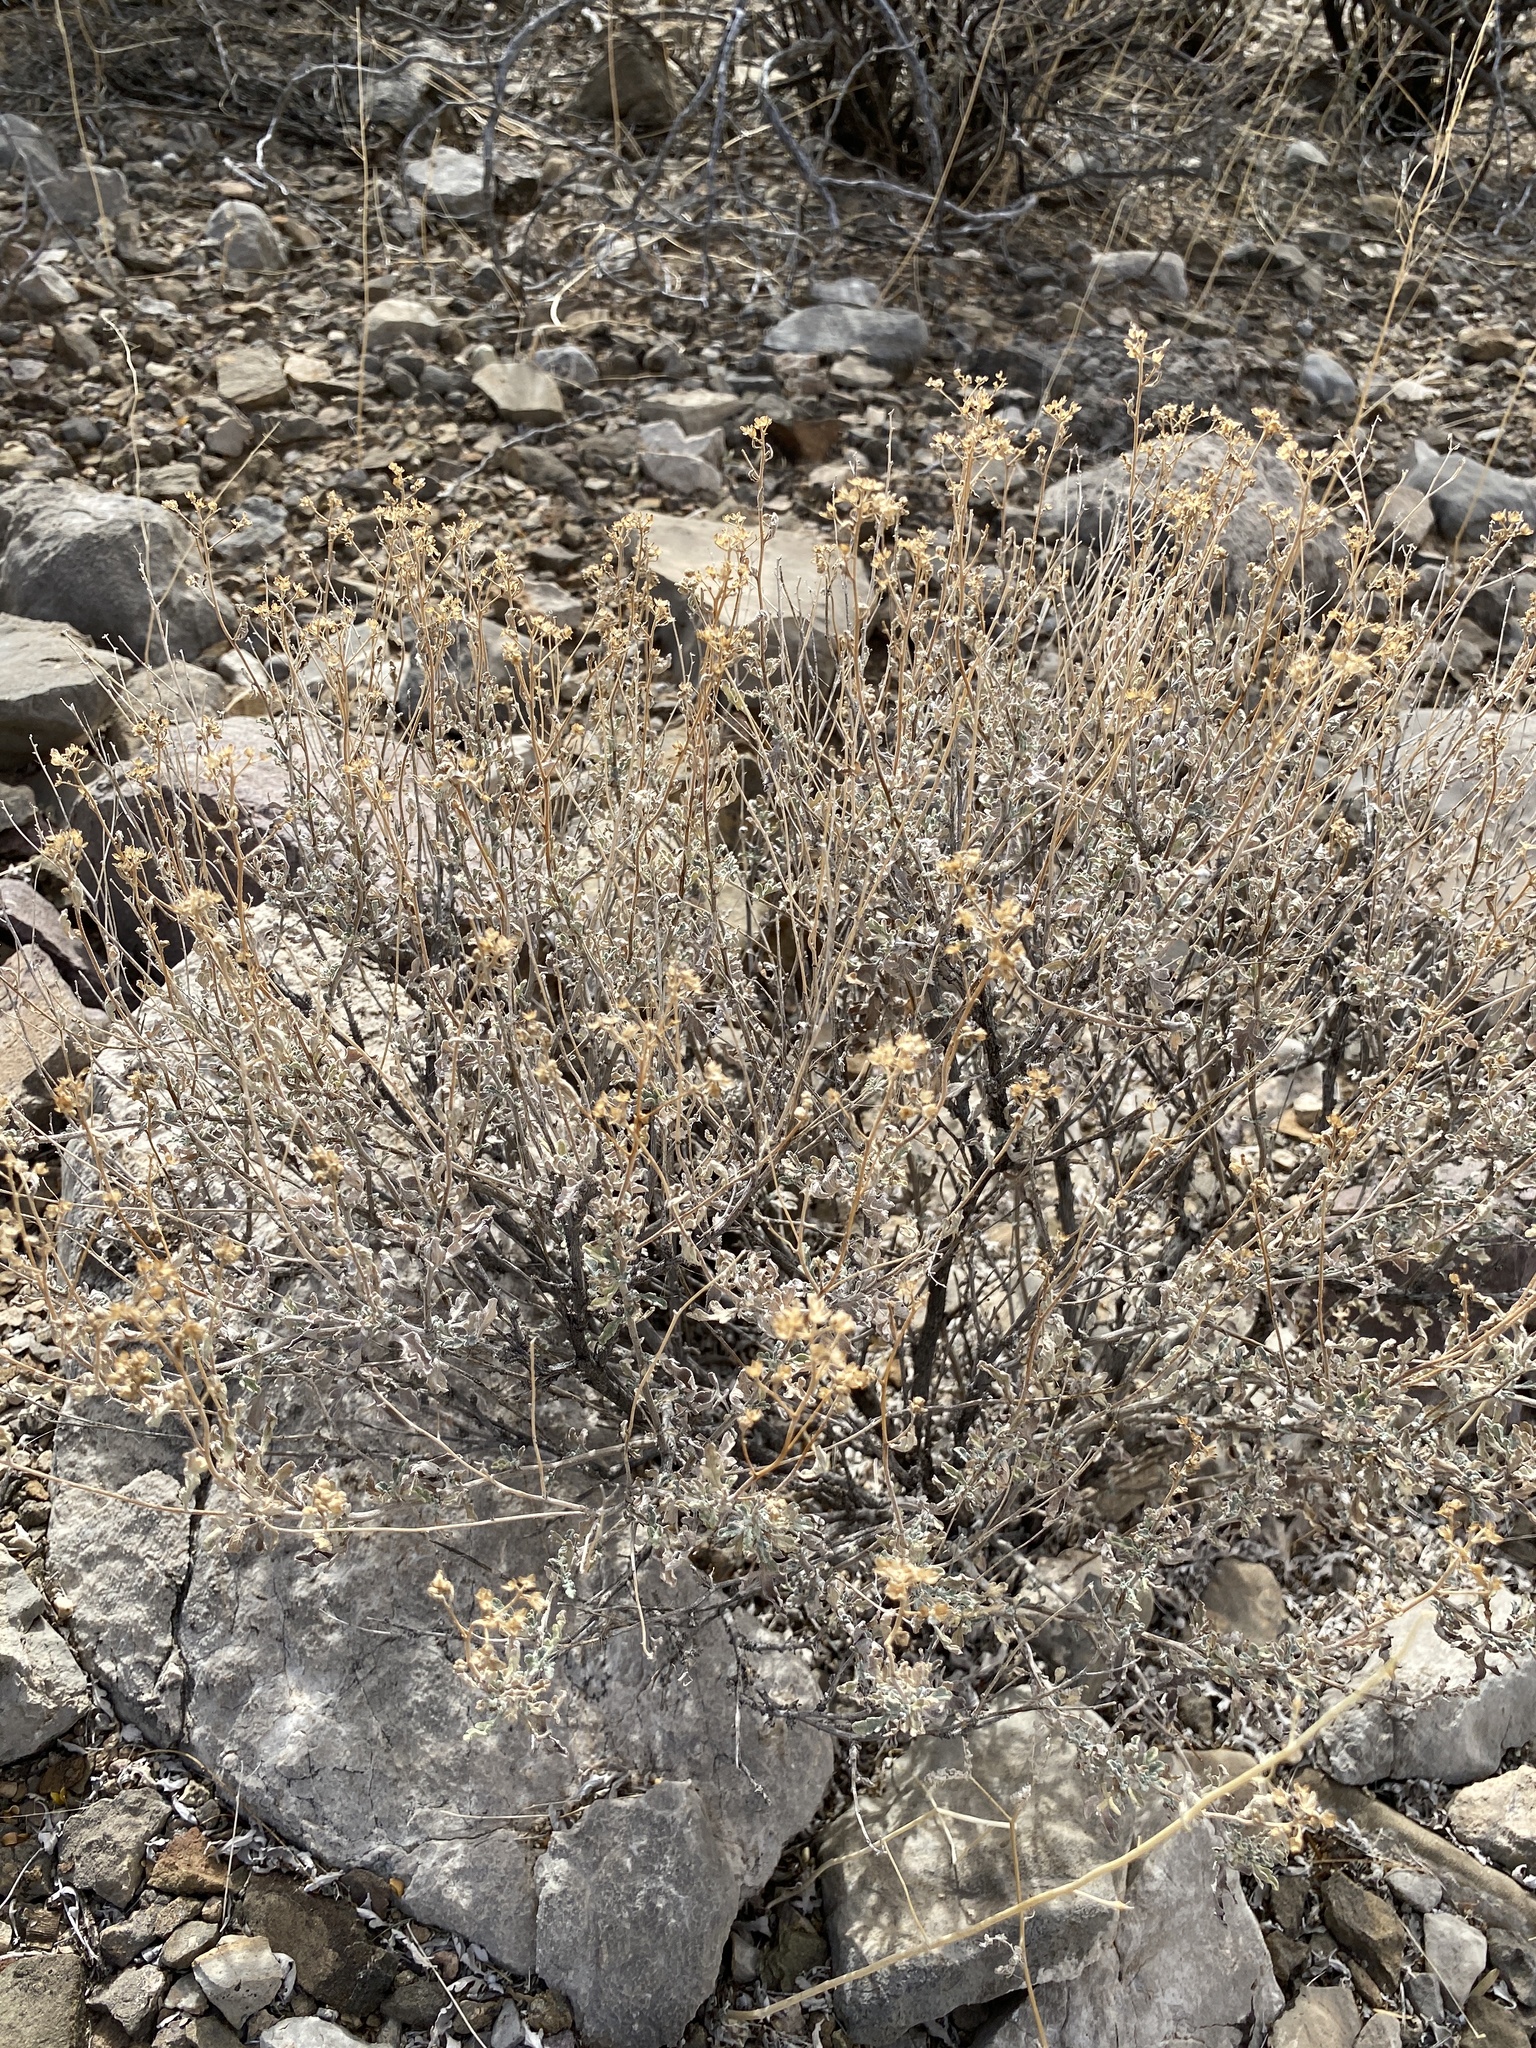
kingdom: Plantae
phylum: Tracheophyta
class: Magnoliopsida
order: Asterales
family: Asteraceae
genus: Parthenium
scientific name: Parthenium incanum
